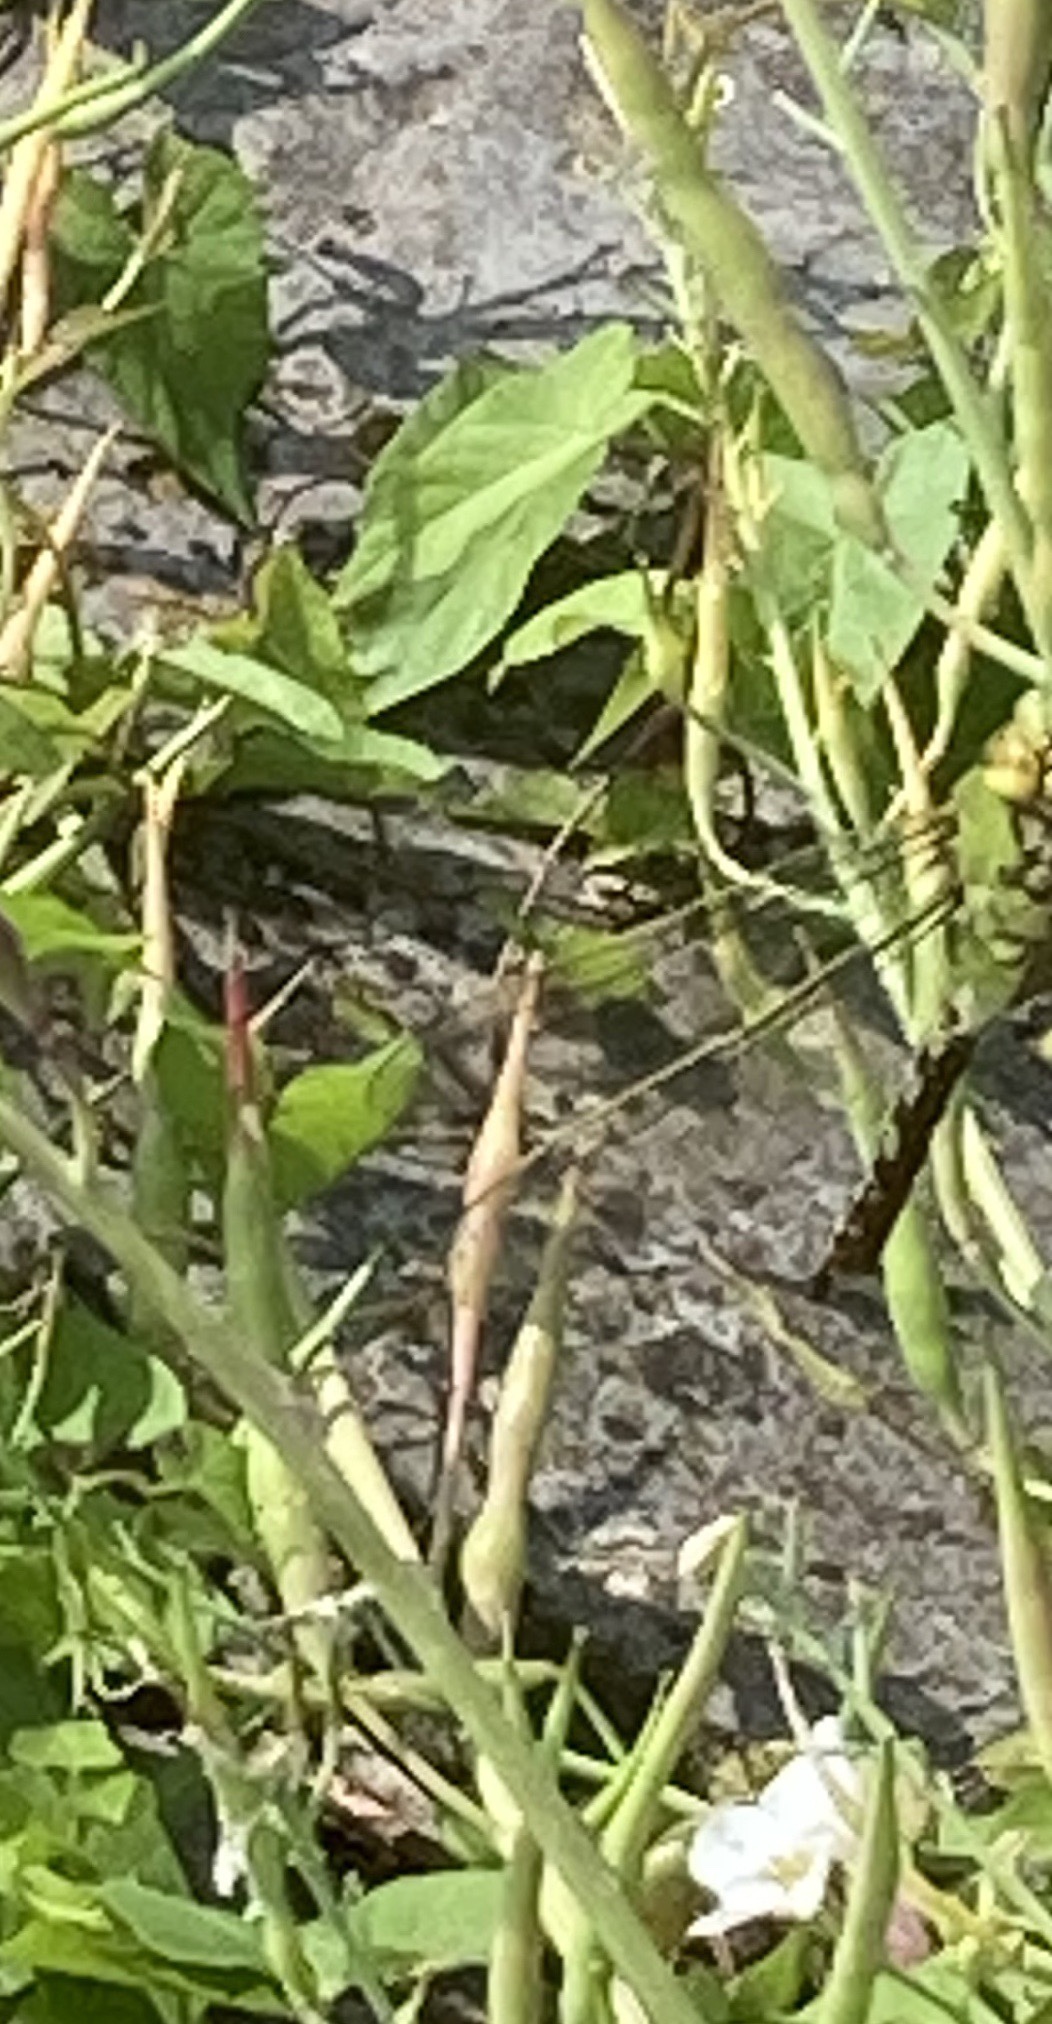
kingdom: Animalia
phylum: Arthropoda
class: Insecta
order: Odonata
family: Aeshnidae
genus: Anax
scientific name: Anax imperator
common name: Emperor dragonfly
